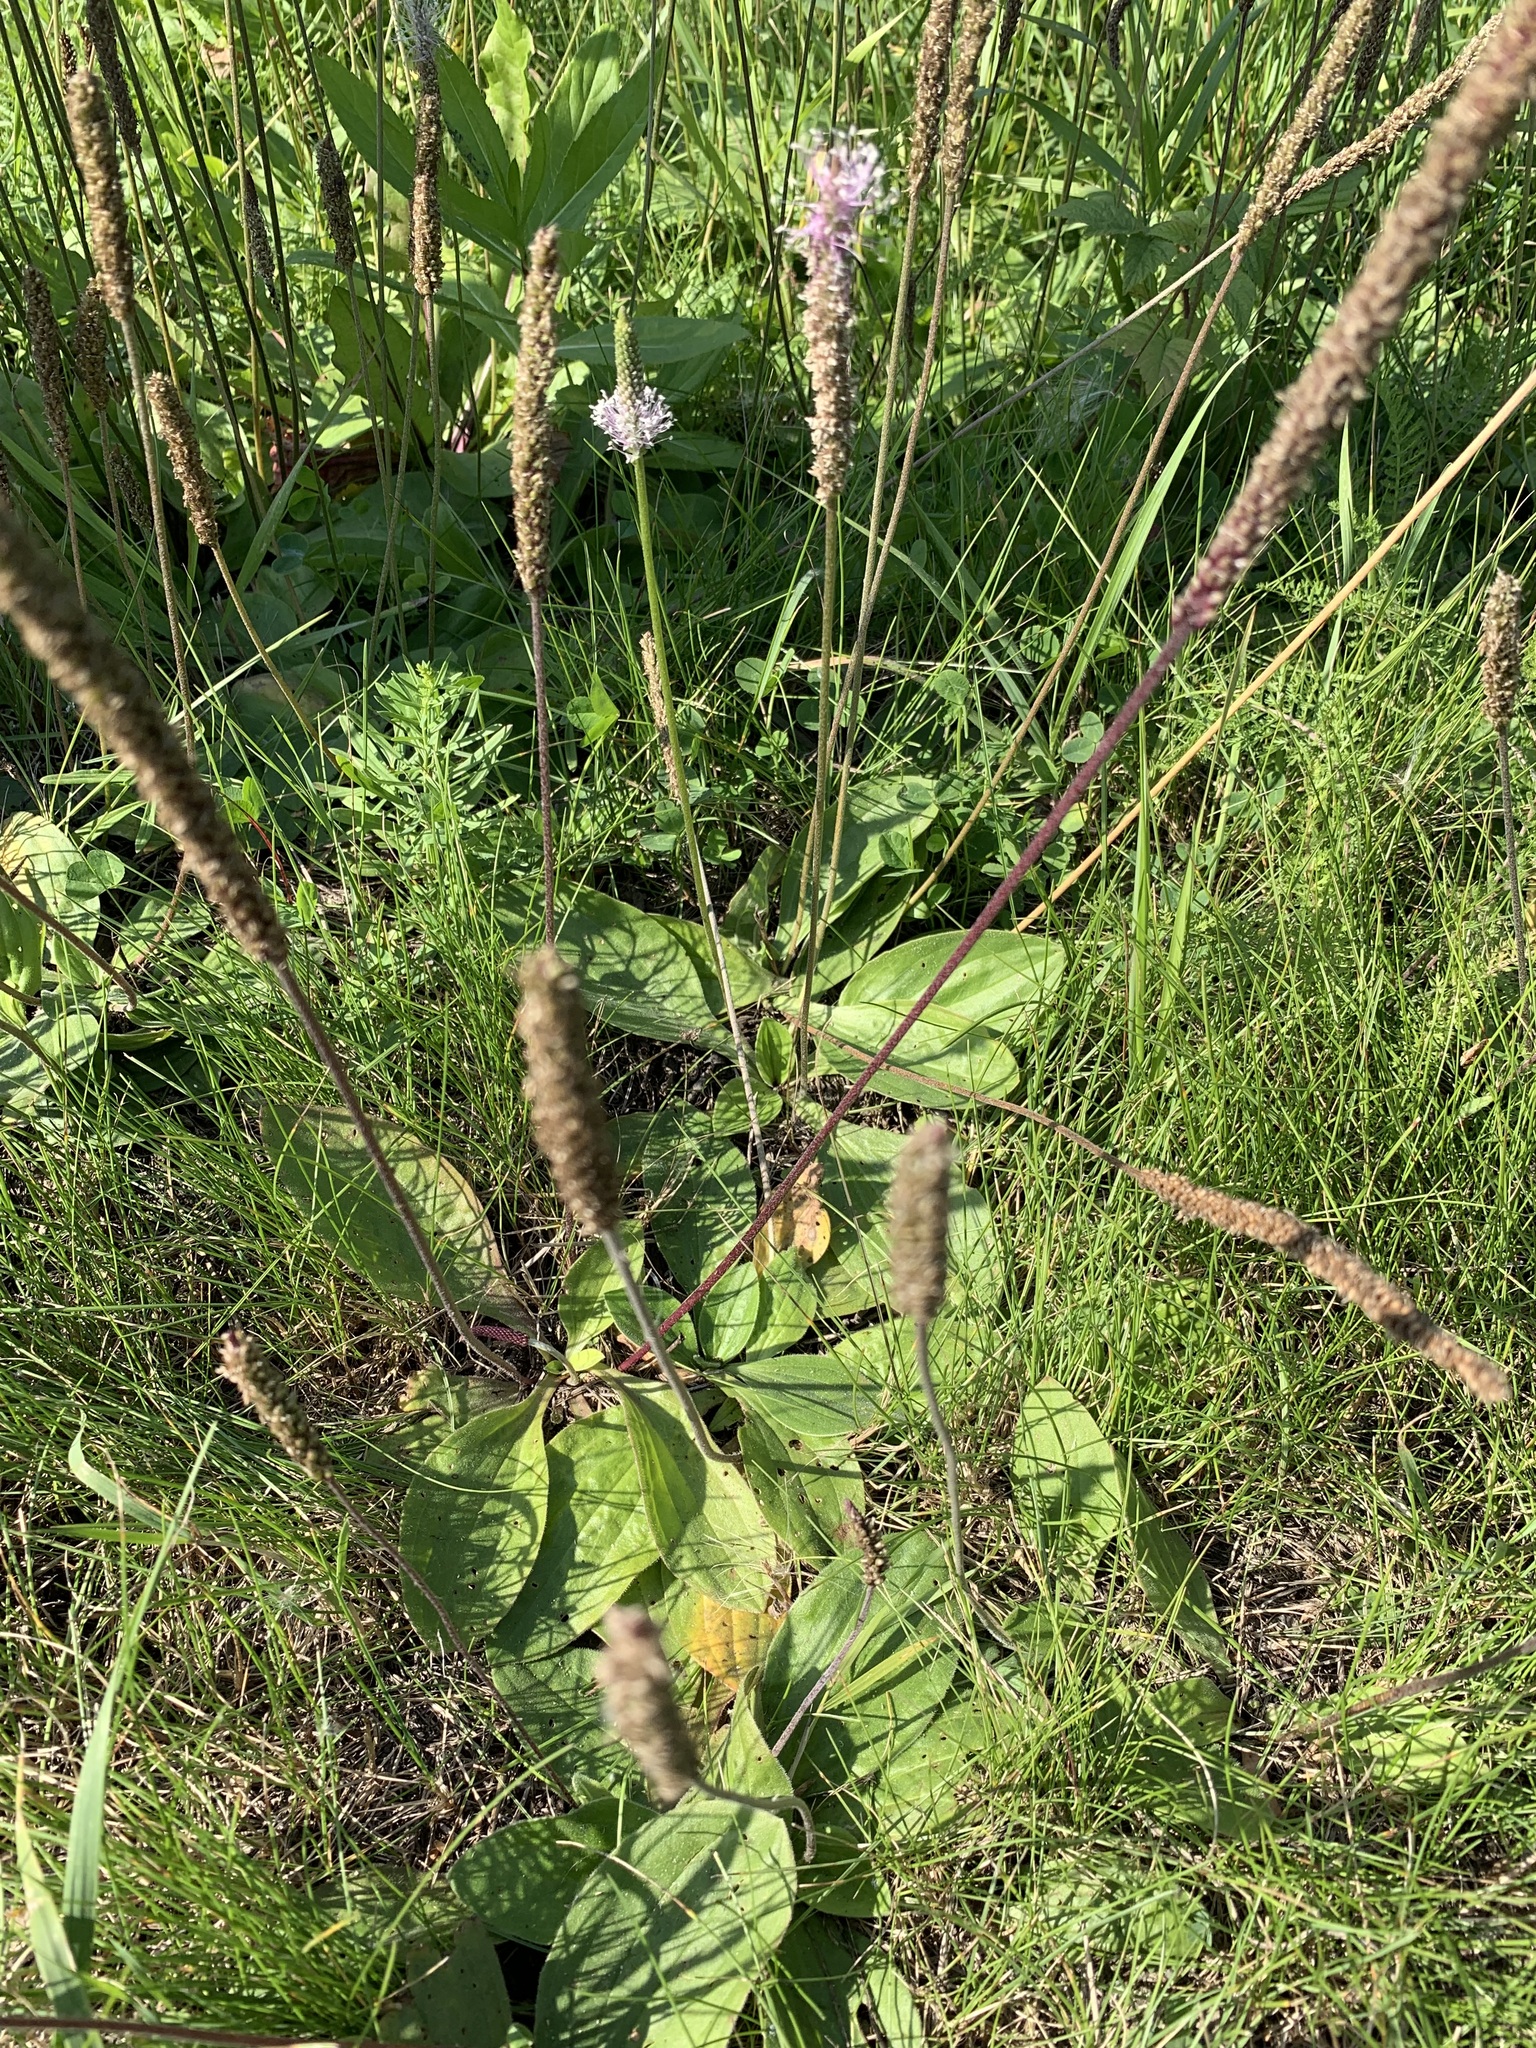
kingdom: Plantae
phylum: Tracheophyta
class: Magnoliopsida
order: Lamiales
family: Plantaginaceae
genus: Plantago
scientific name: Plantago media
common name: Hoary plantain
